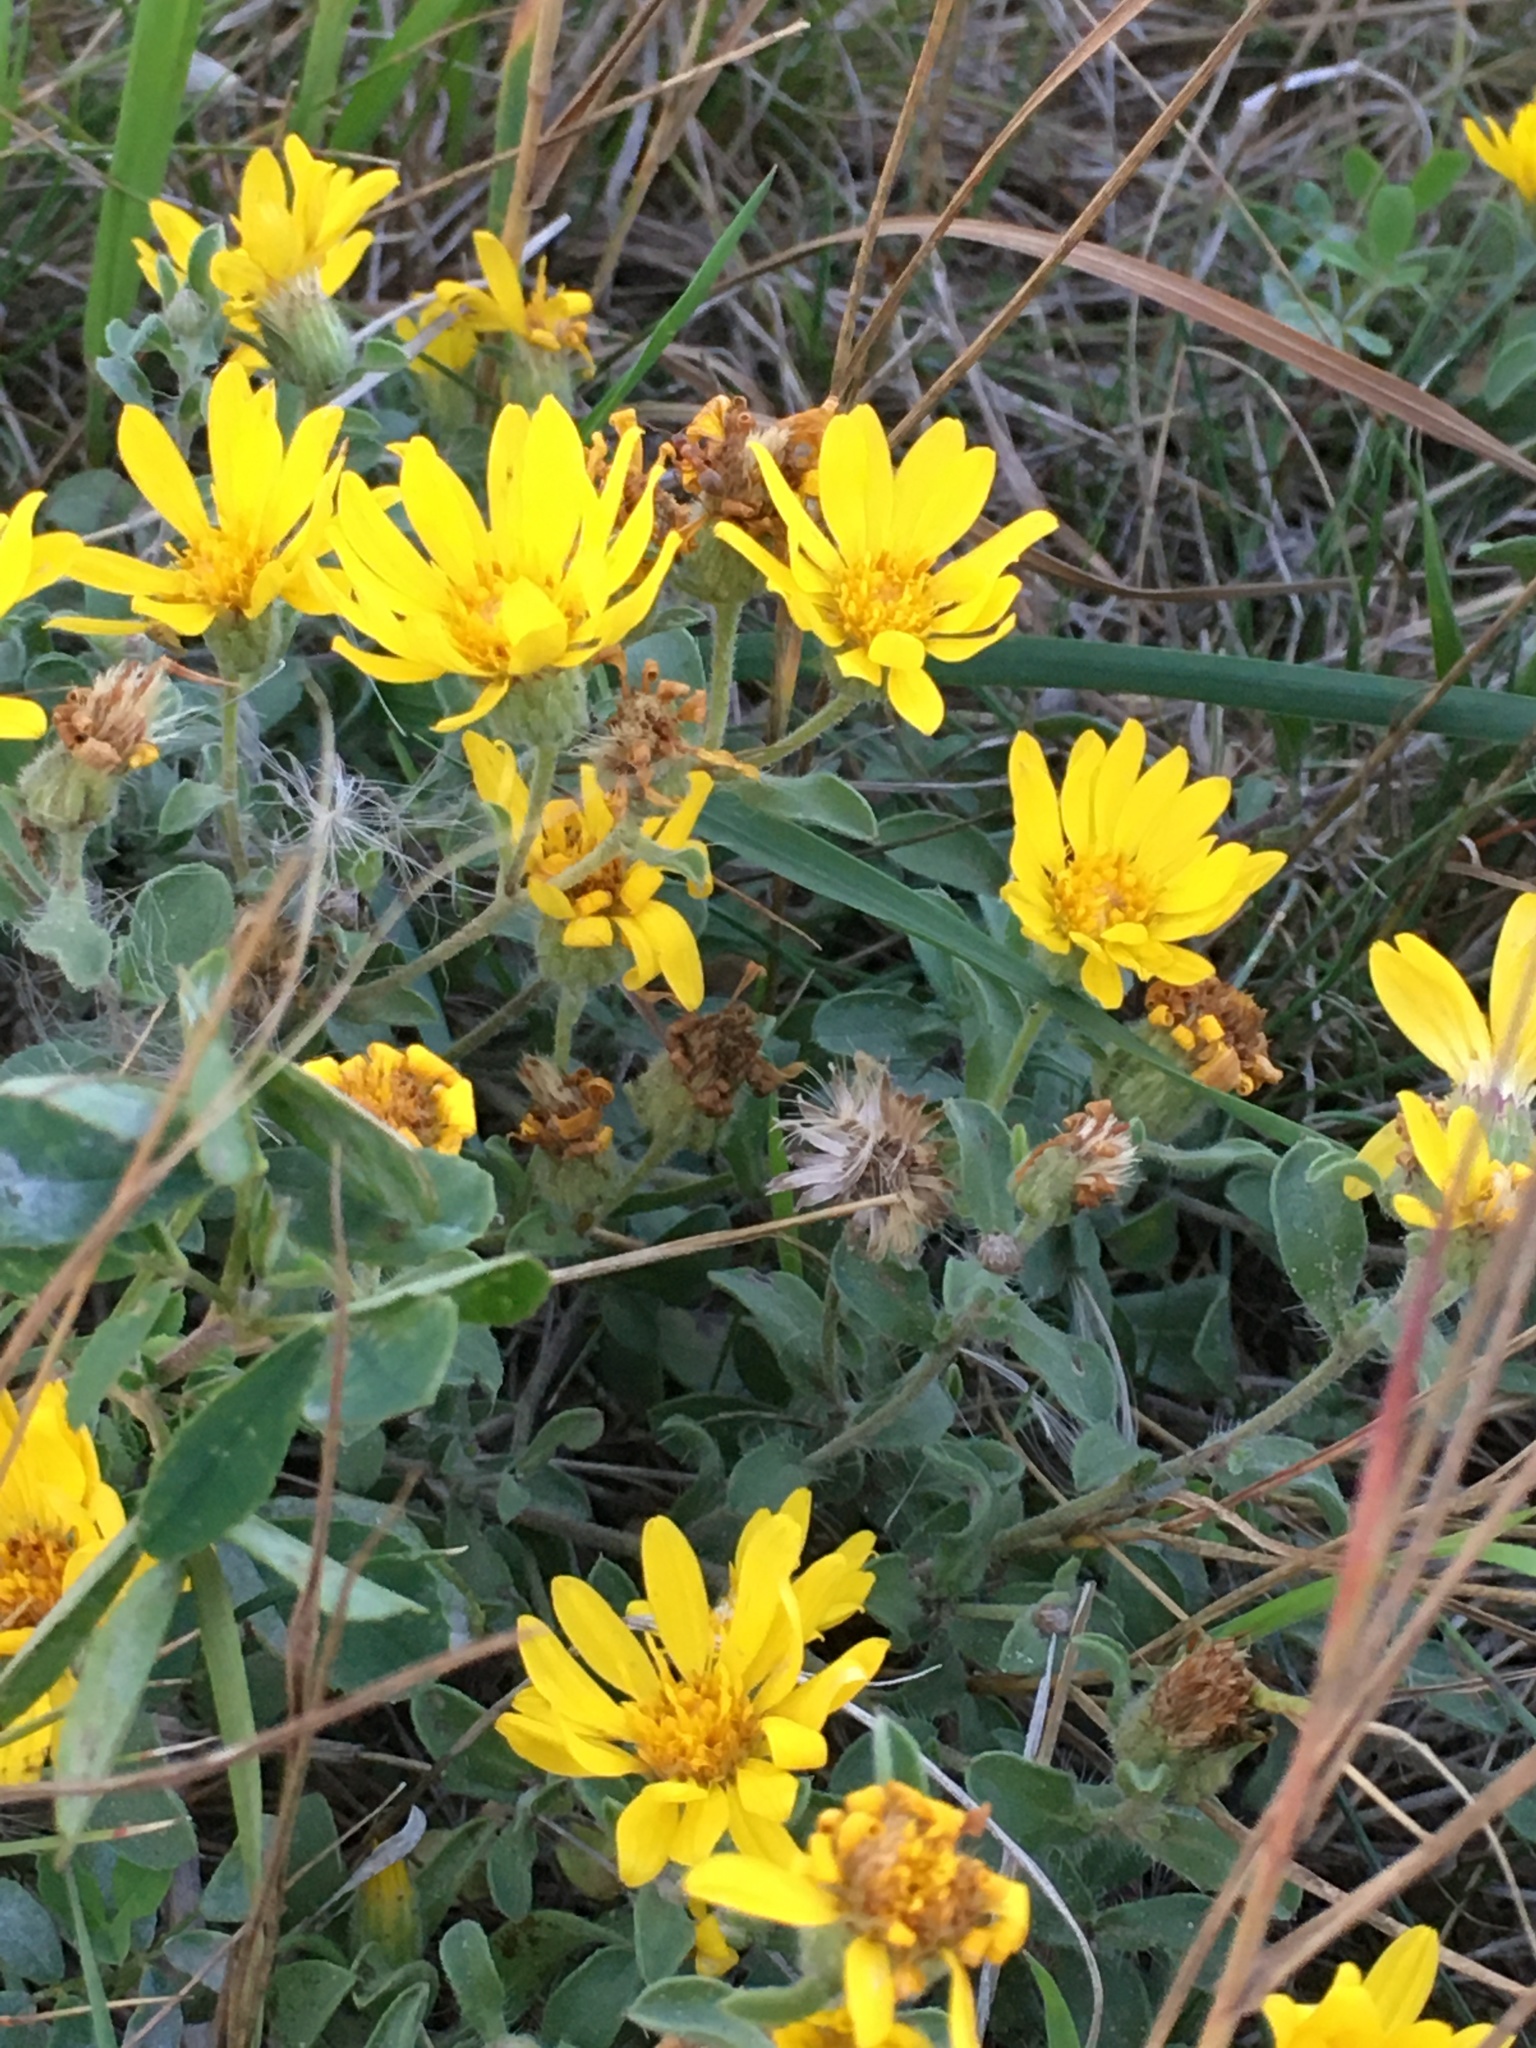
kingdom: Plantae
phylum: Tracheophyta
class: Magnoliopsida
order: Asterales
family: Asteraceae
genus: Heterotheca
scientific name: Heterotheca villosa
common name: Hairy false goldenaster
